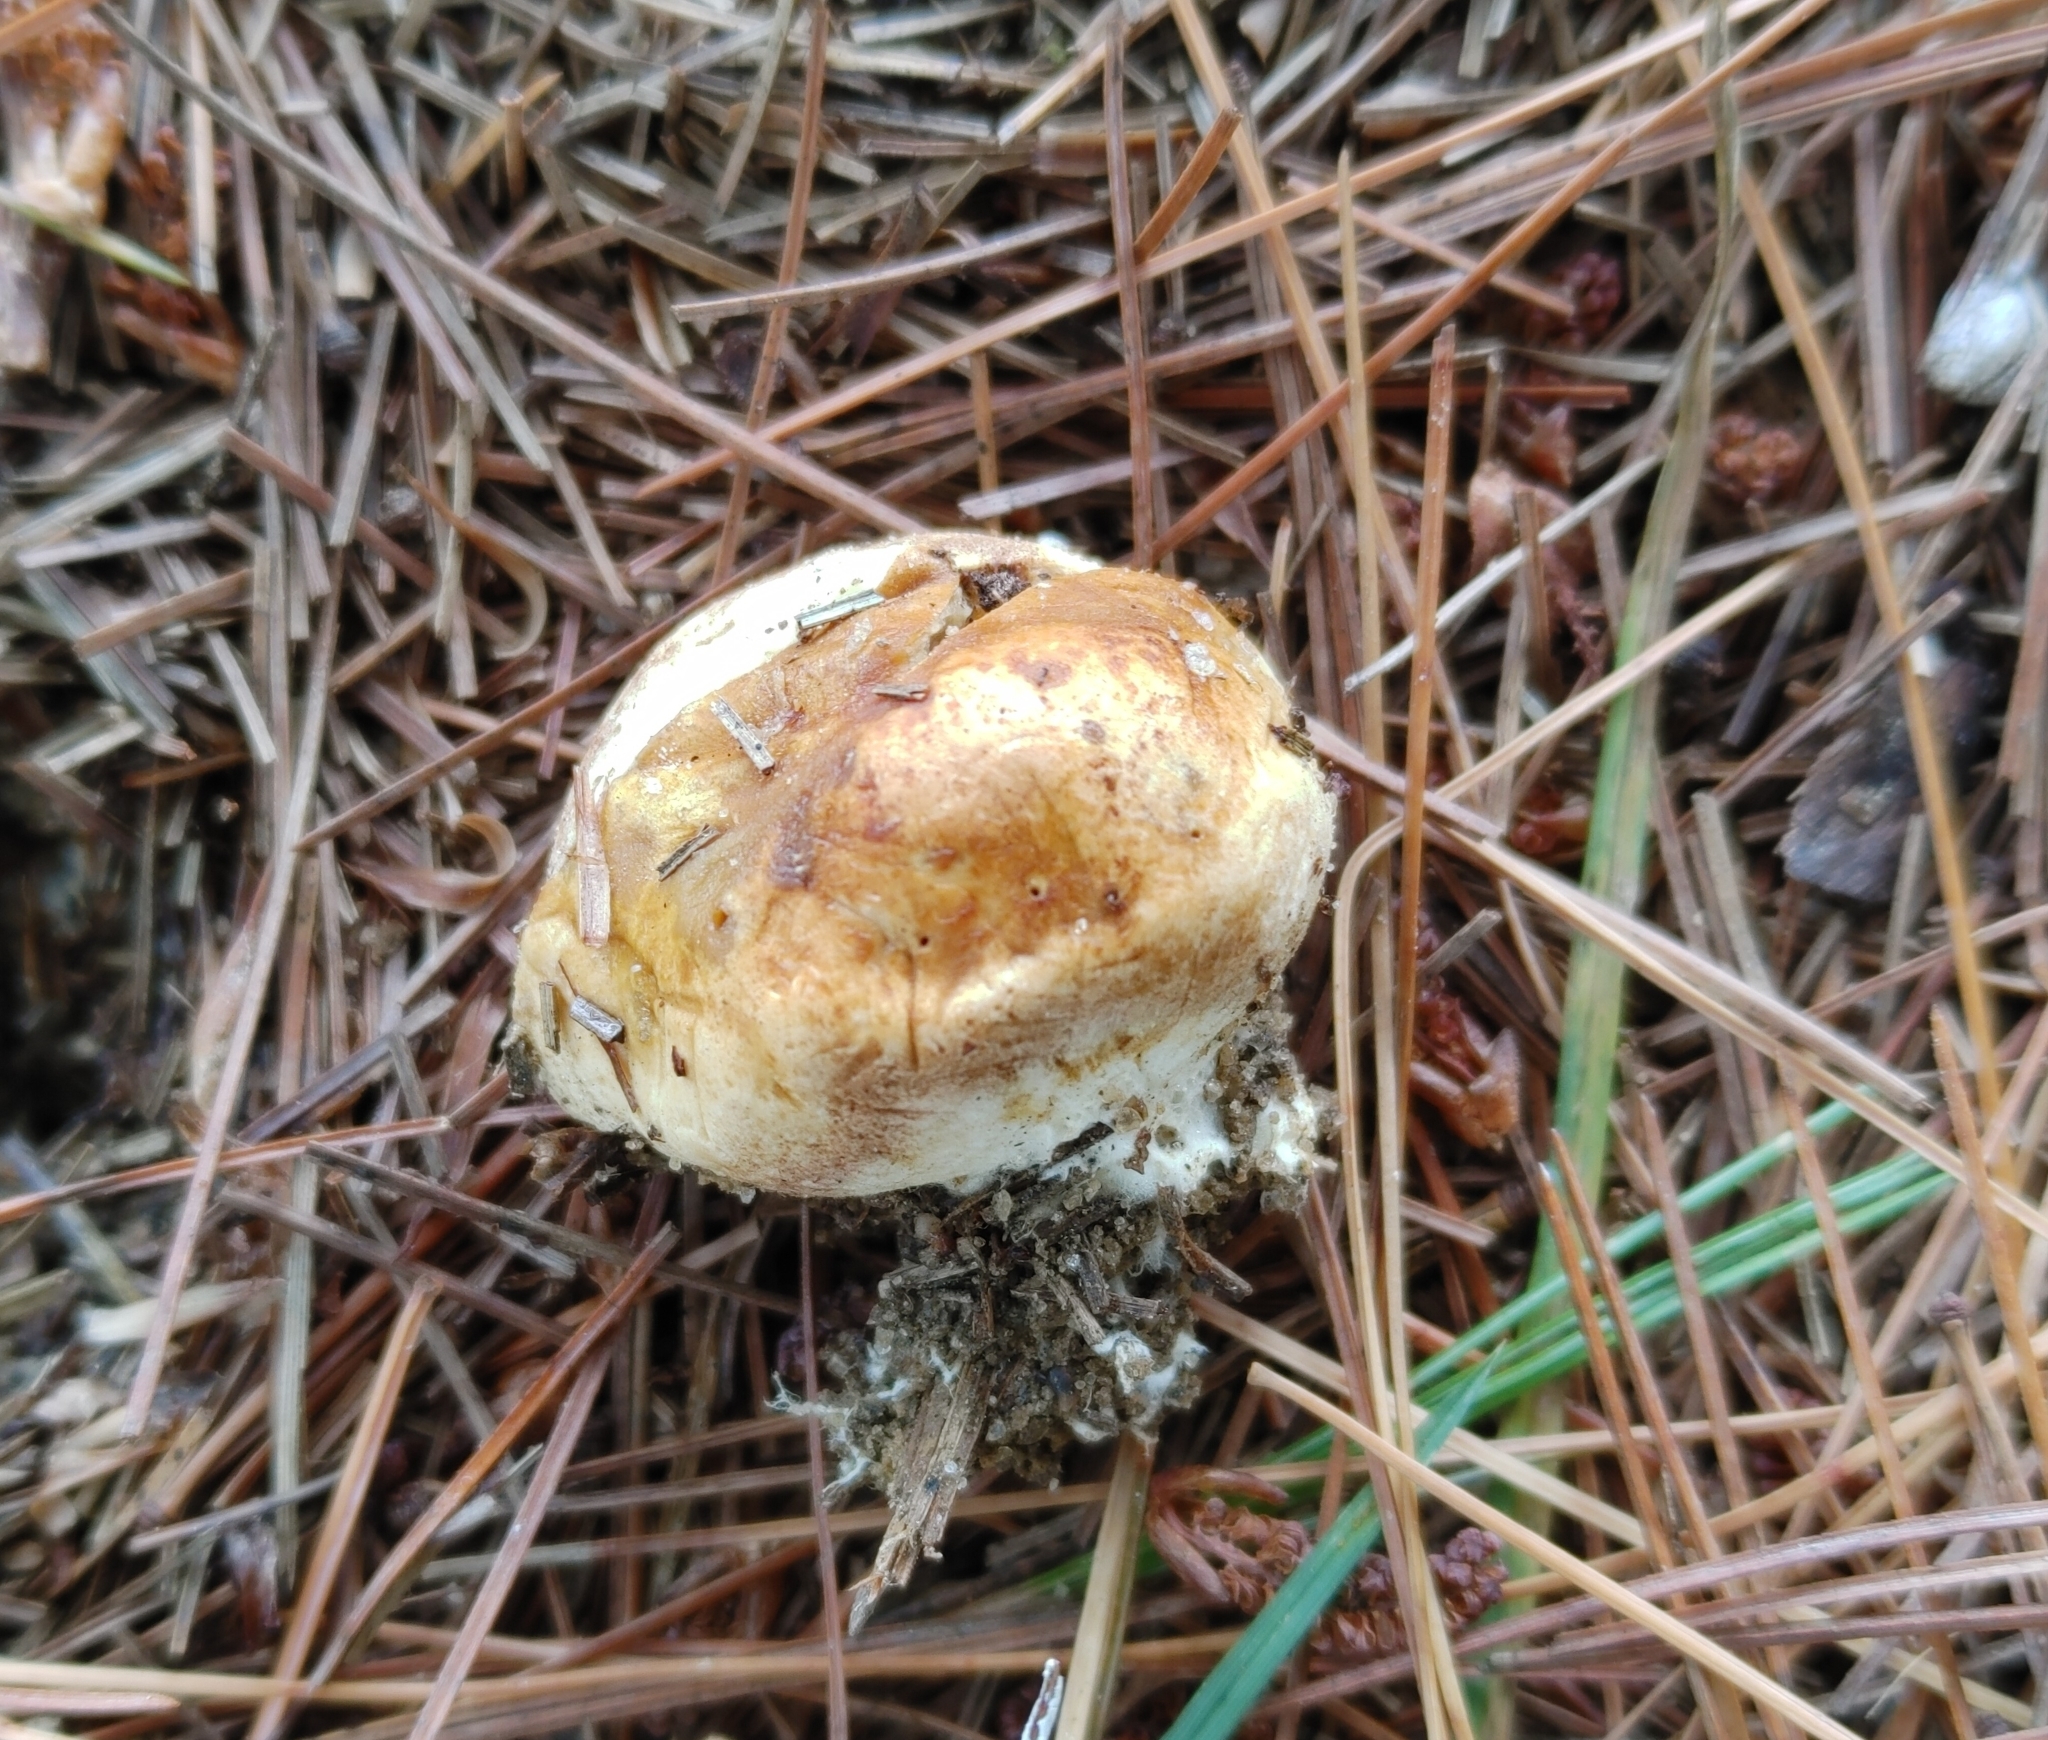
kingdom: Fungi
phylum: Basidiomycota
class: Agaricomycetes
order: Boletales
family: Sclerodermataceae
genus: Scleroderma
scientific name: Scleroderma bovista
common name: Potato earthball
